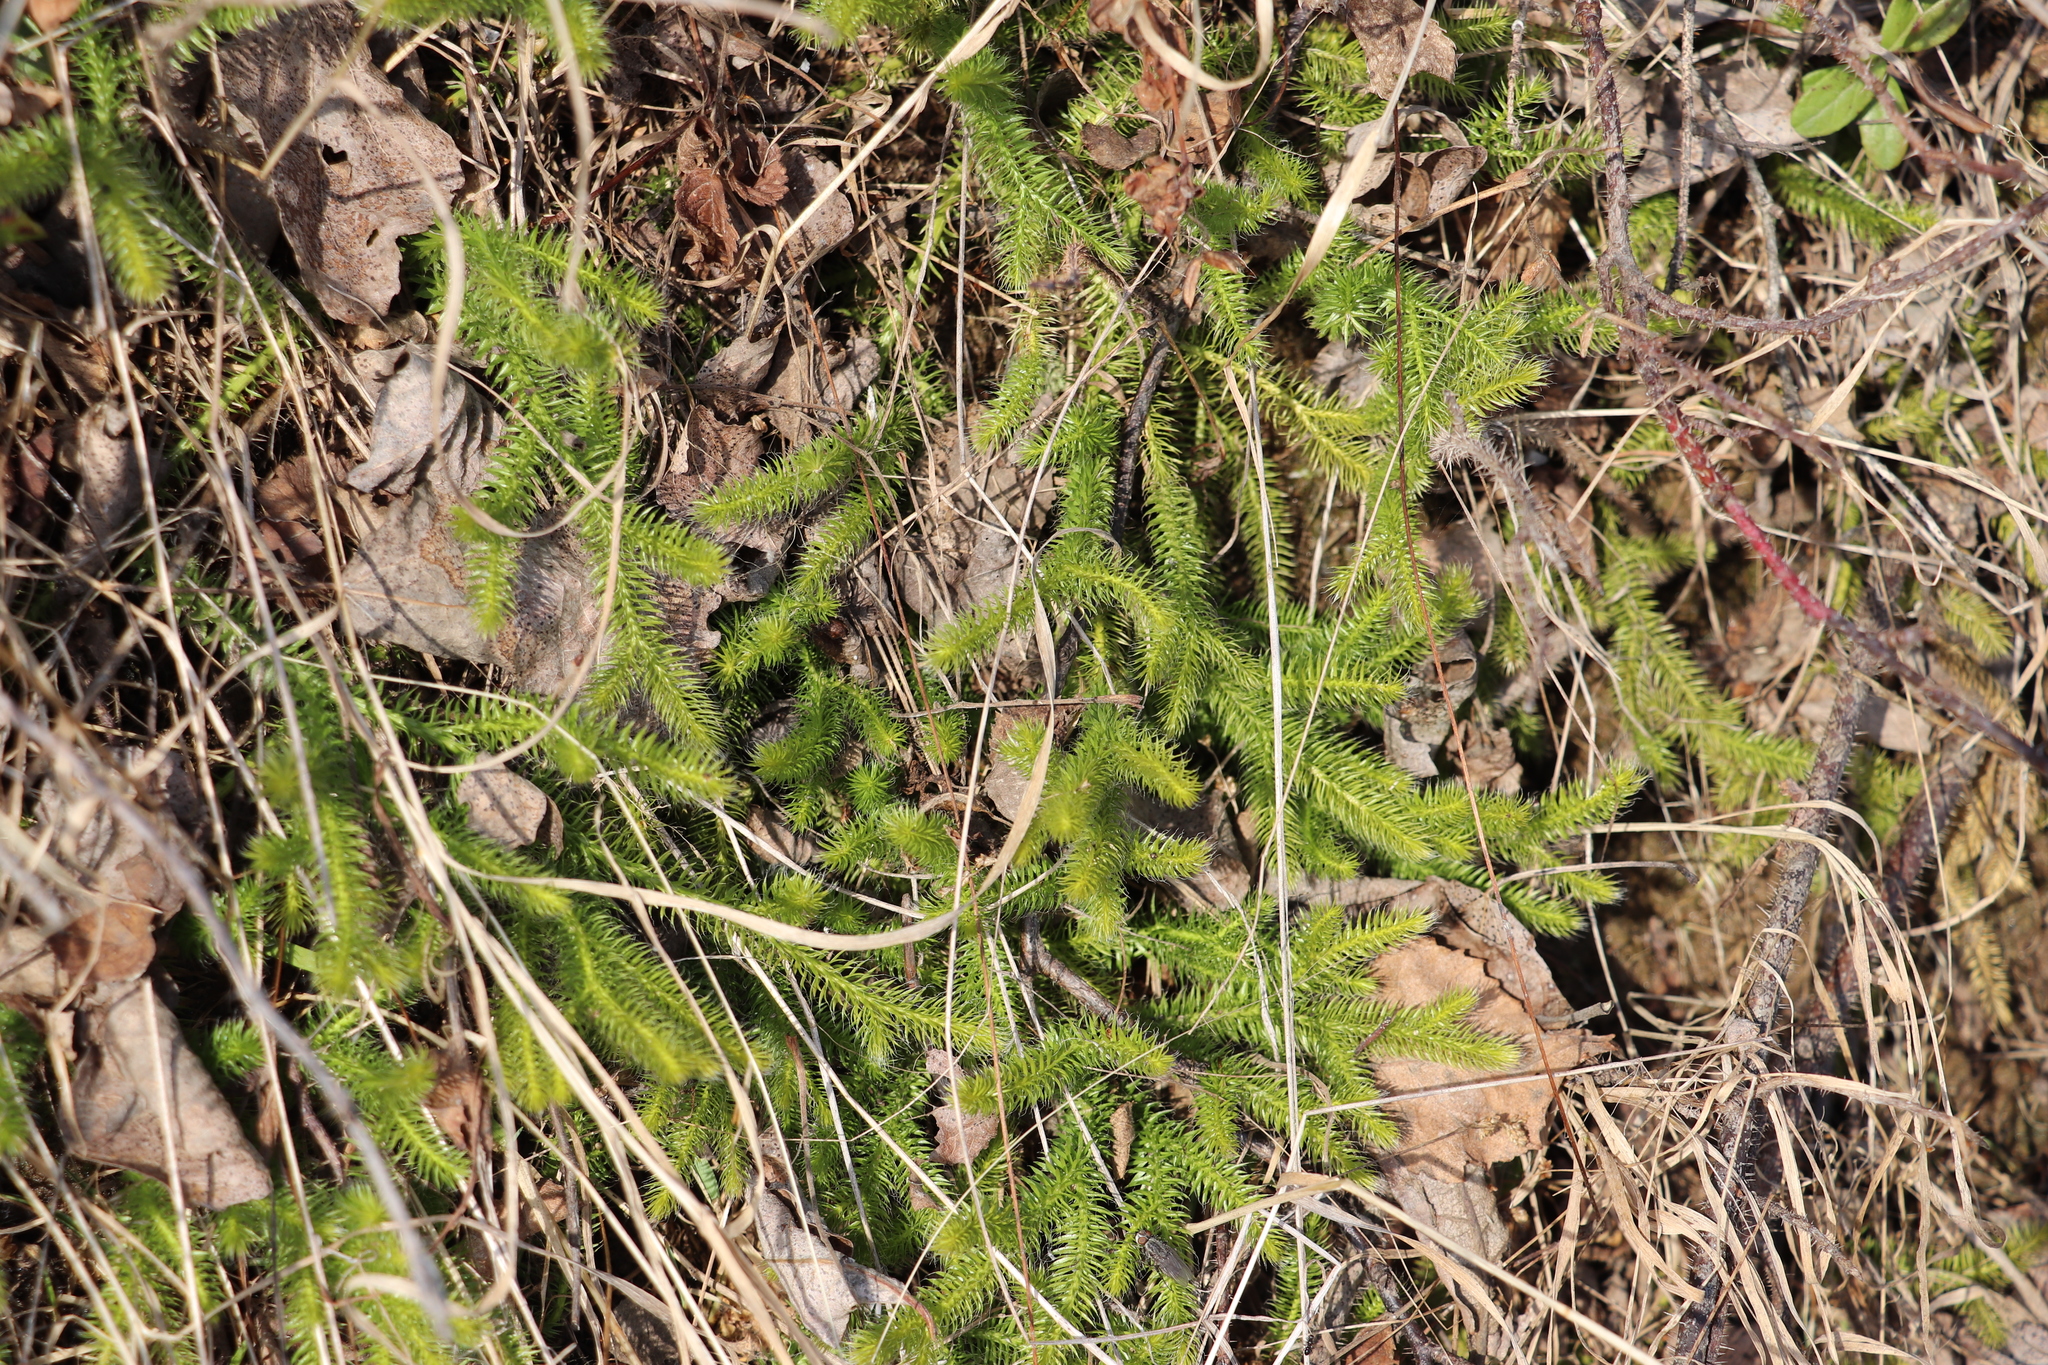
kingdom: Plantae
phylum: Tracheophyta
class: Lycopodiopsida
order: Lycopodiales
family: Lycopodiaceae
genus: Lycopodium
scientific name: Lycopodium clavatum
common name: Stag's-horn clubmoss
